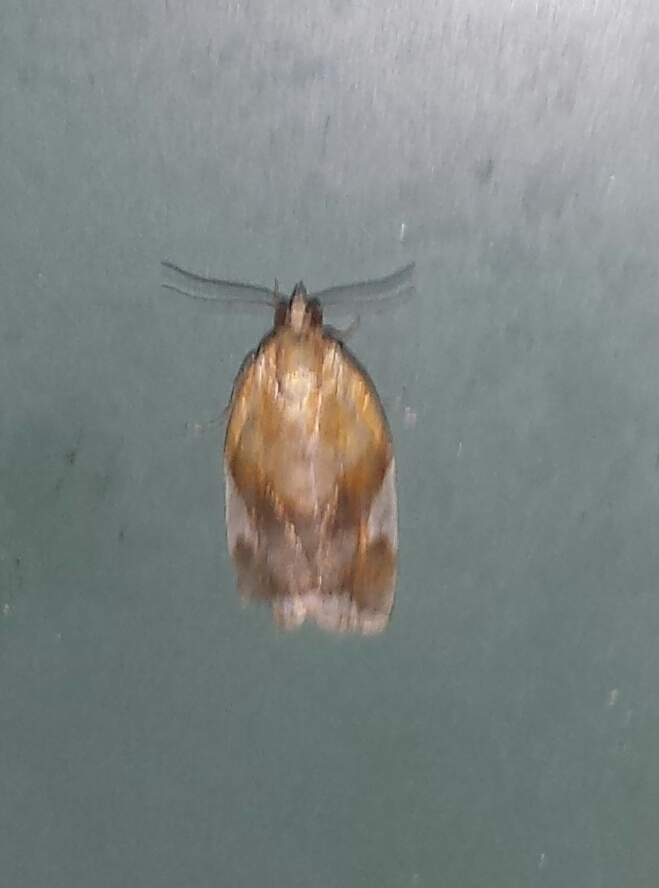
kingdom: Animalia
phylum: Arthropoda
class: Insecta
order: Lepidoptera
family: Tortricidae
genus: Clepsis
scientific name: Clepsis persicana
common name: White triangle tortrix
